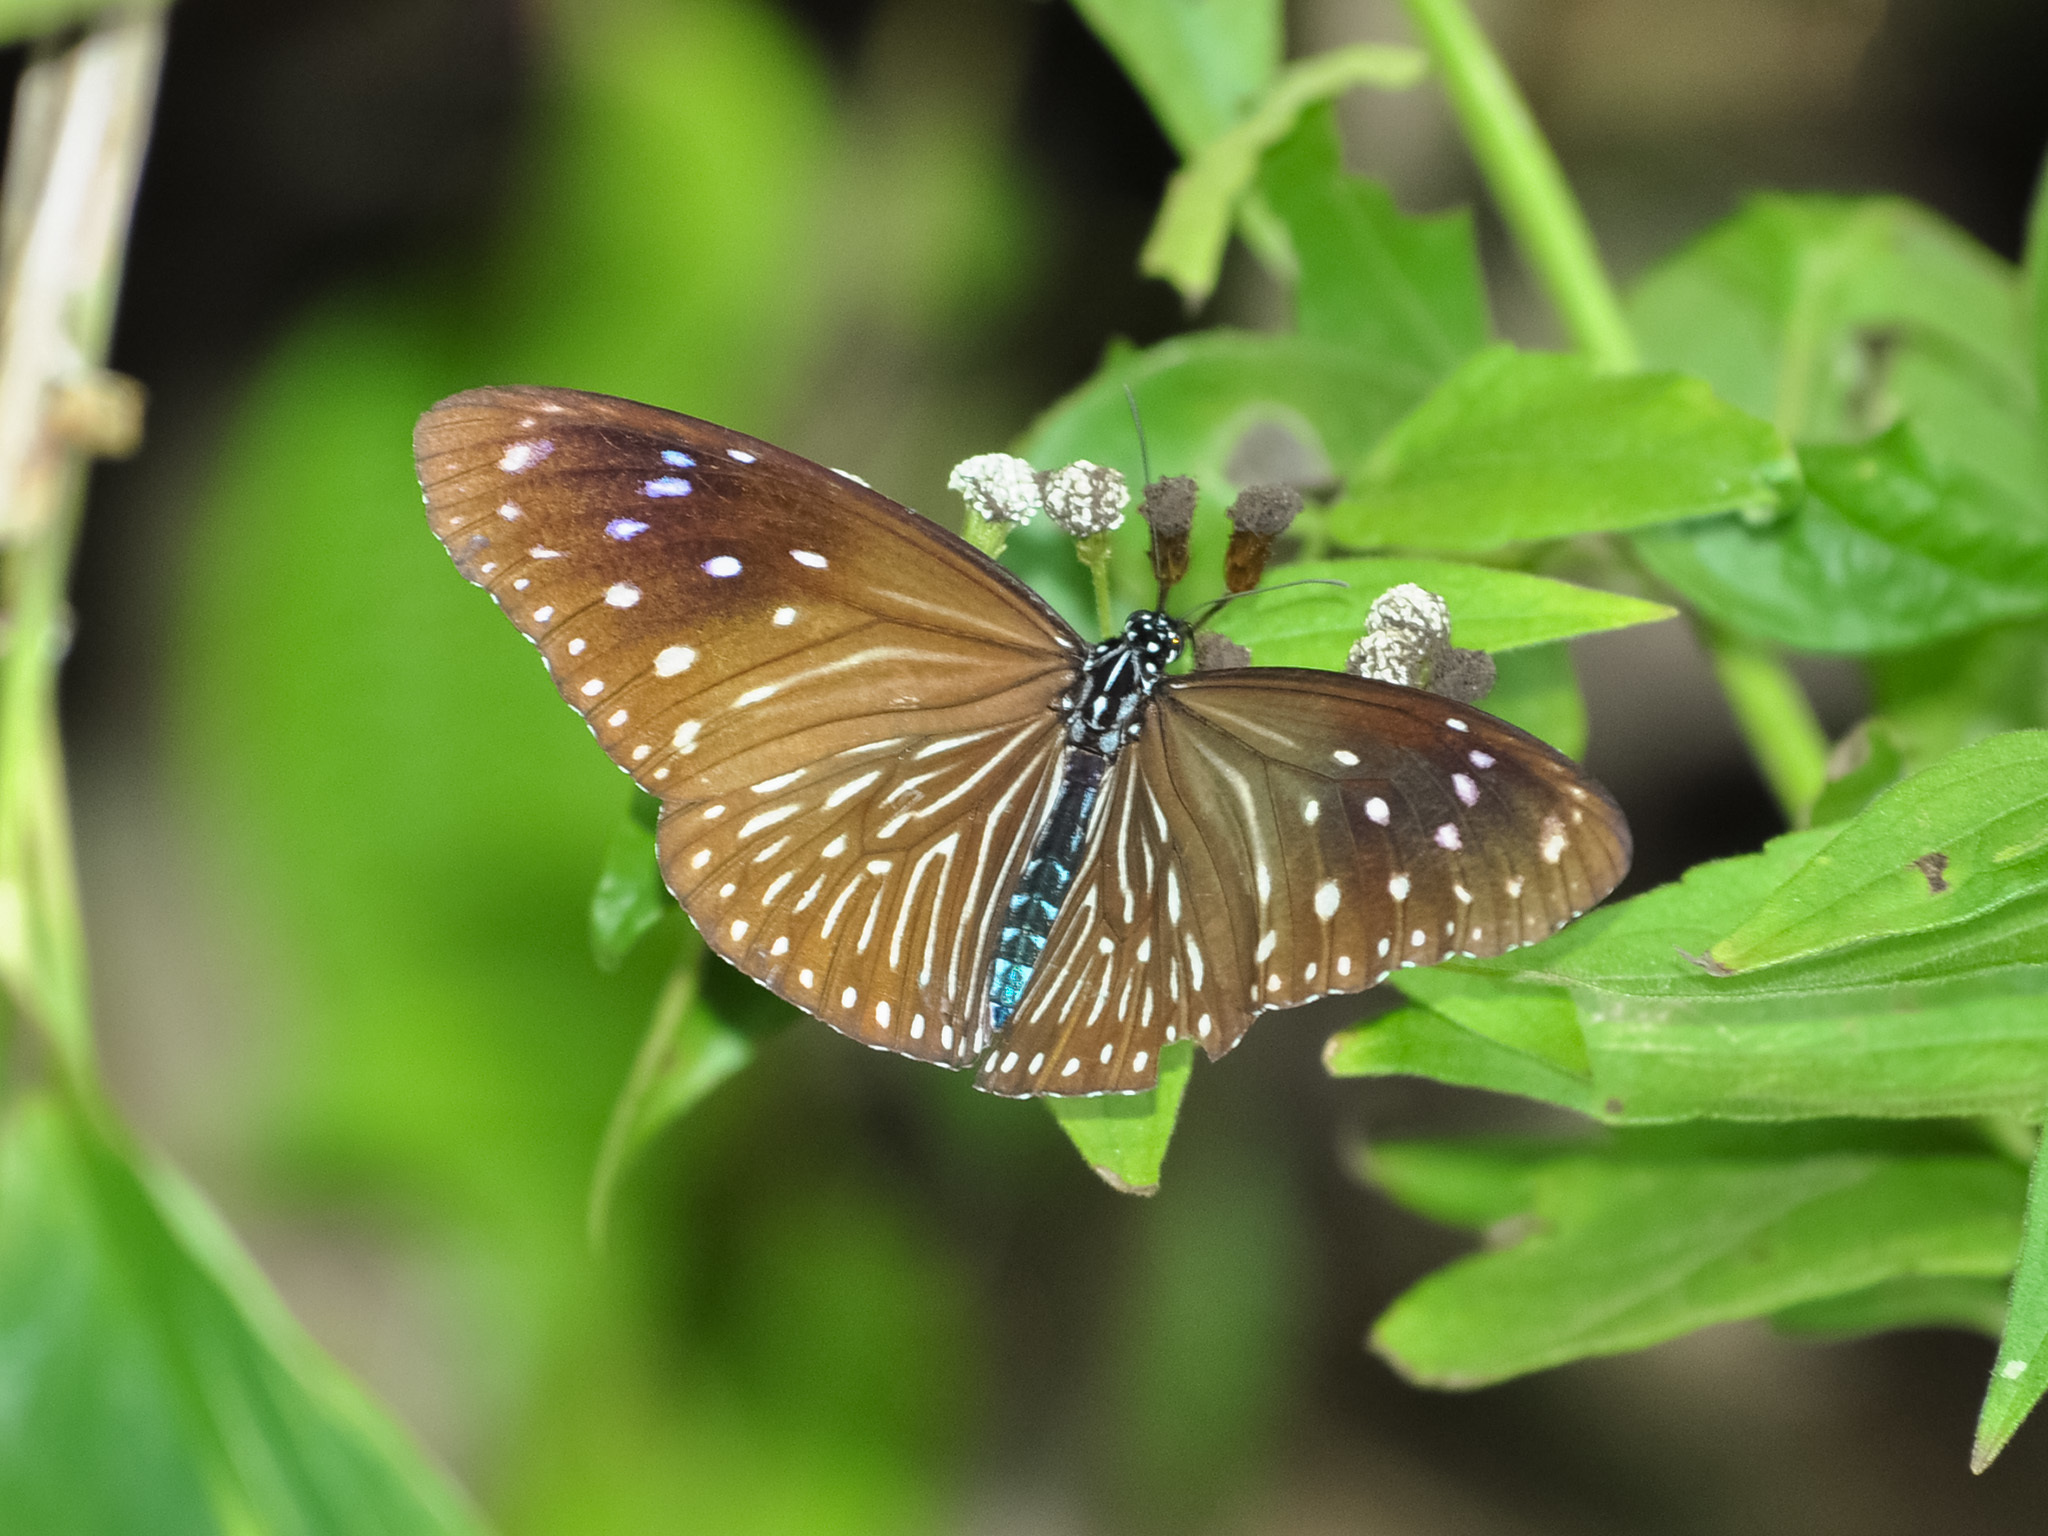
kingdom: Animalia
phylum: Arthropoda
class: Insecta
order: Lepidoptera
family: Nymphalidae
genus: Euploea
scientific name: Euploea mulciber
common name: Striped blue crow butterfly
